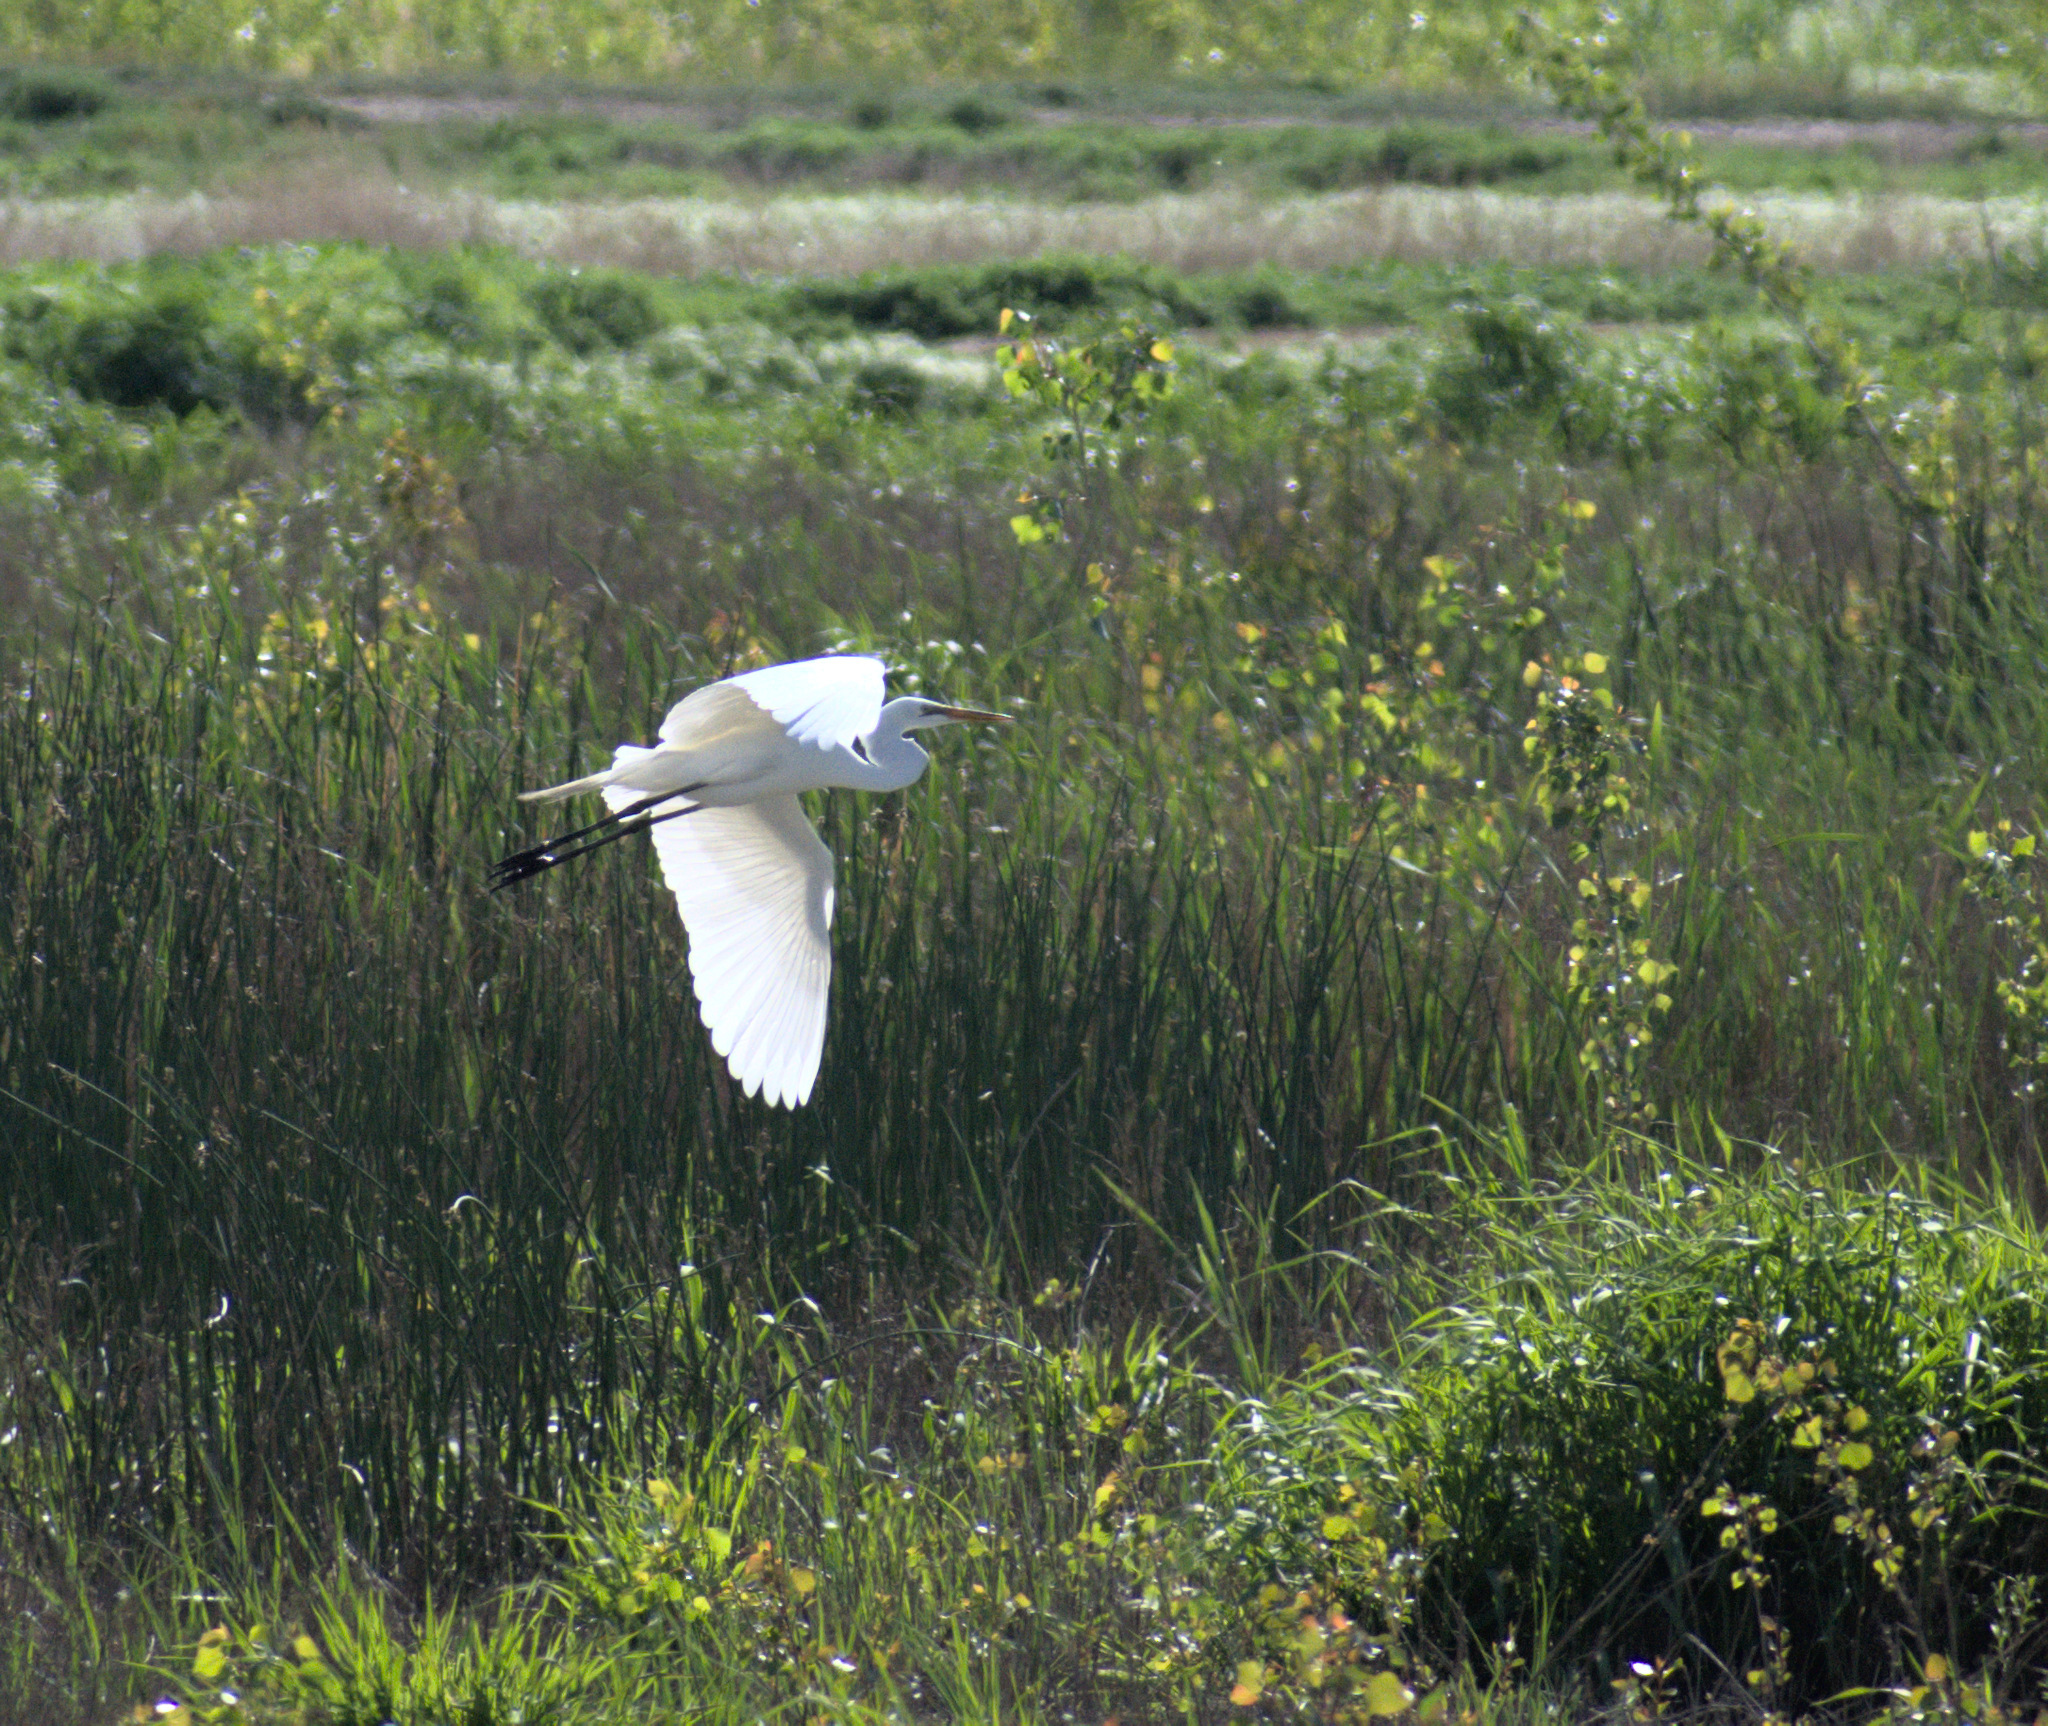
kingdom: Animalia
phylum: Chordata
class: Aves
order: Pelecaniformes
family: Ardeidae
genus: Ardea
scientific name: Ardea alba
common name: Great egret
